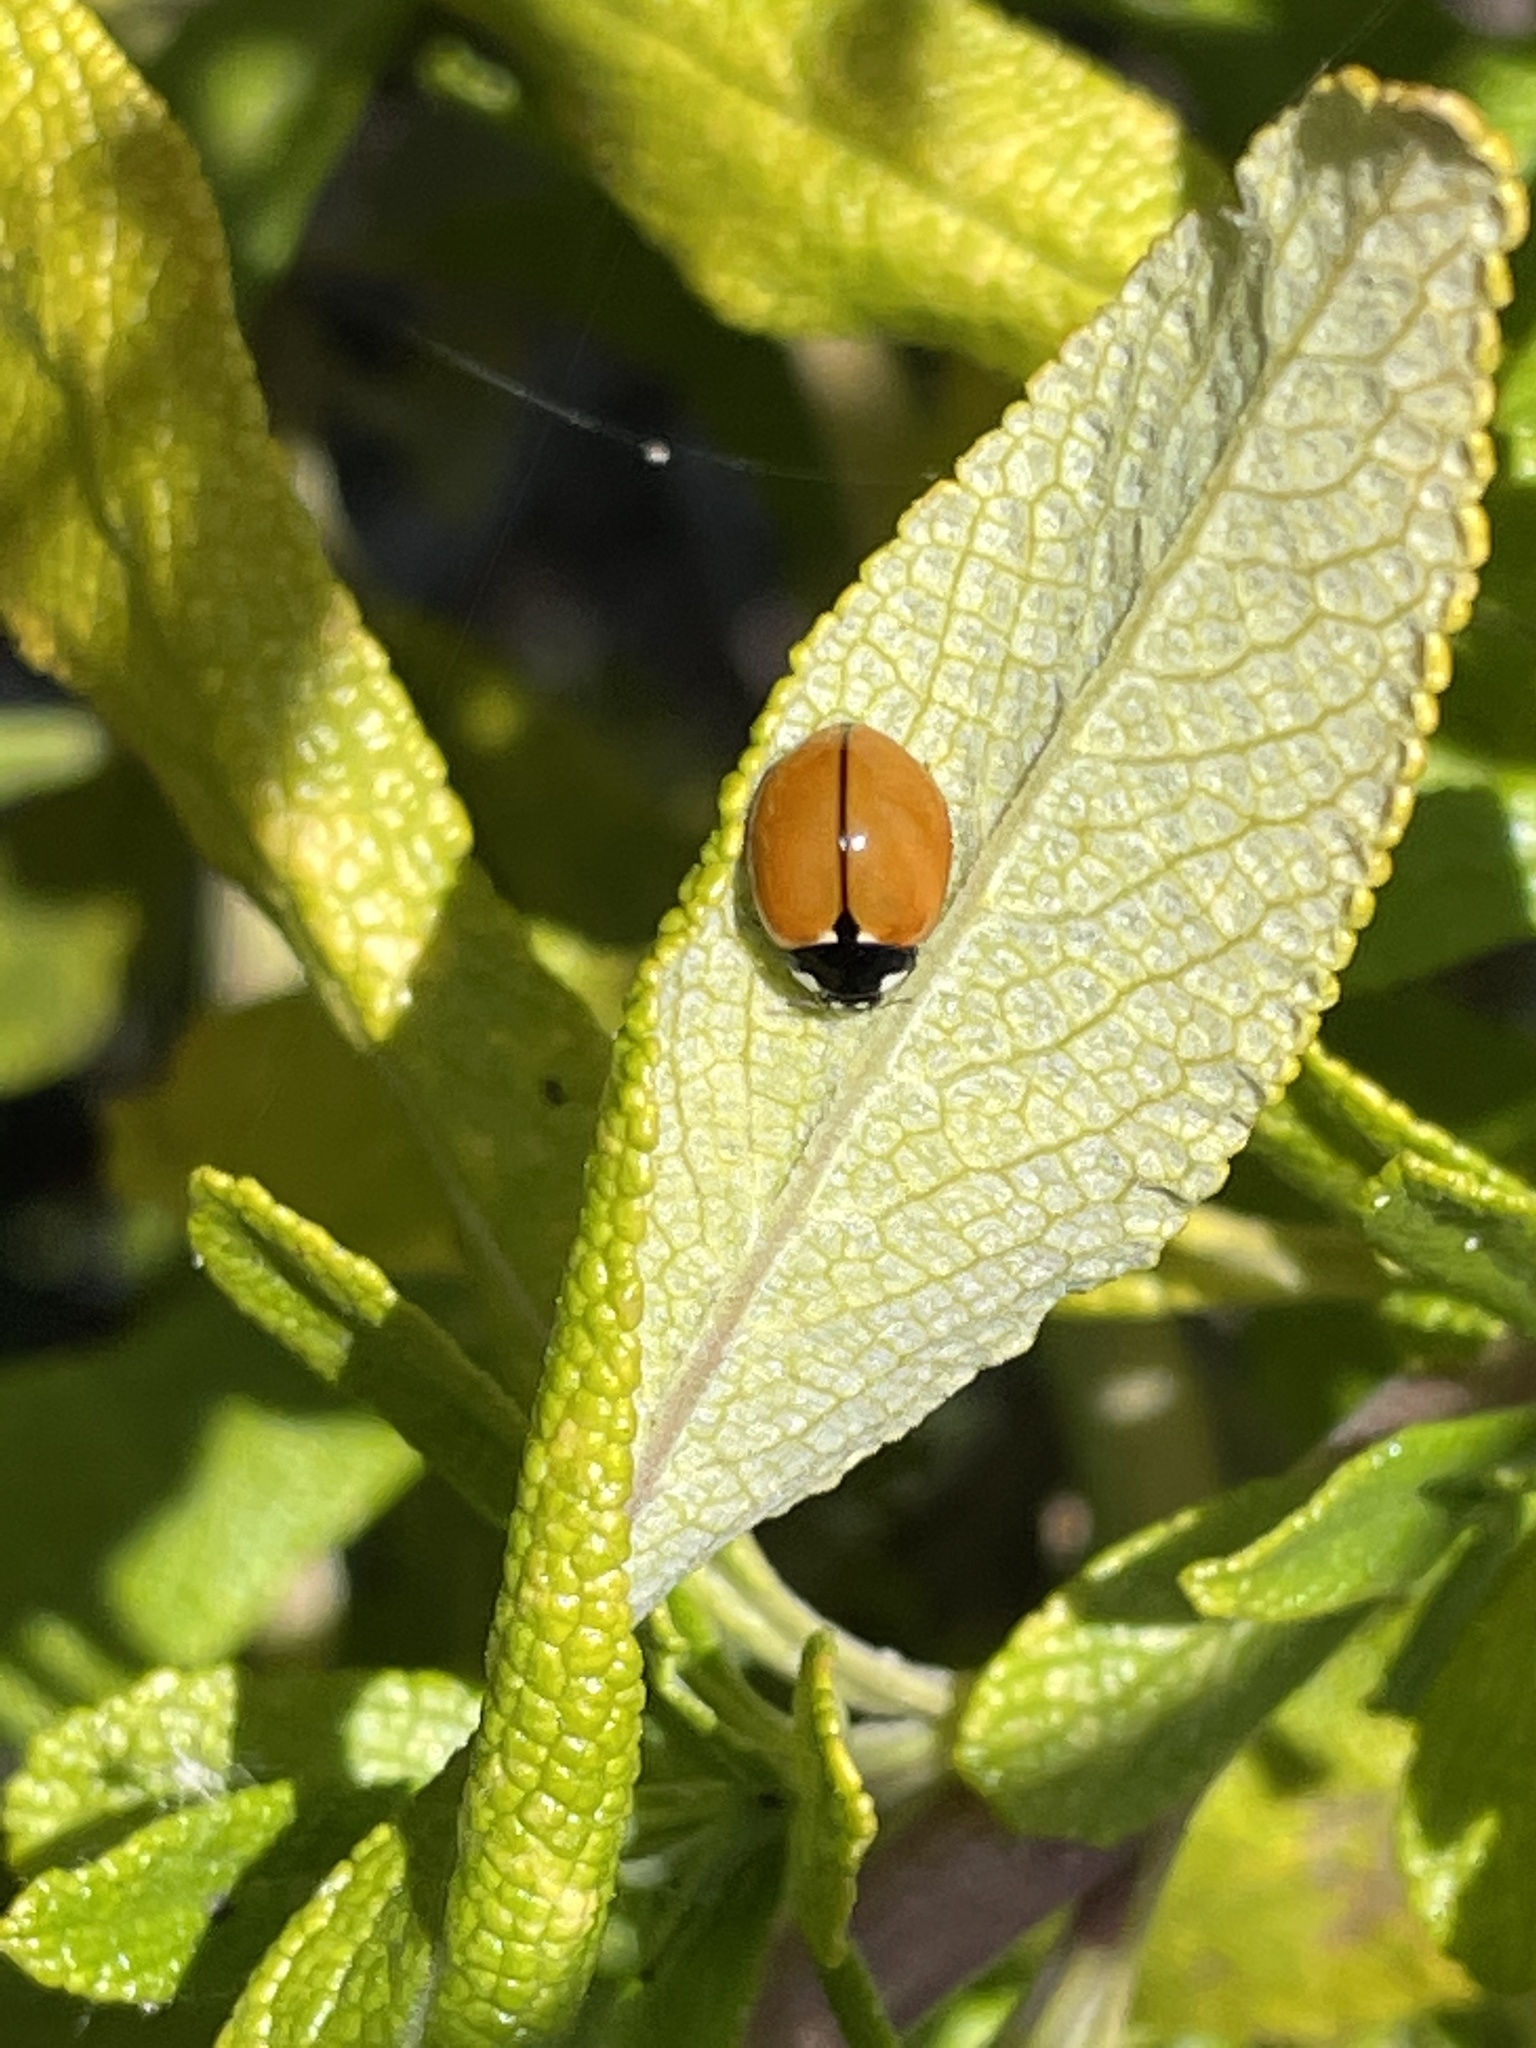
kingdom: Animalia
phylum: Arthropoda
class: Insecta
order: Coleoptera
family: Coccinellidae
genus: Coccinella
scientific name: Coccinella californica
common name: Lady beetle
